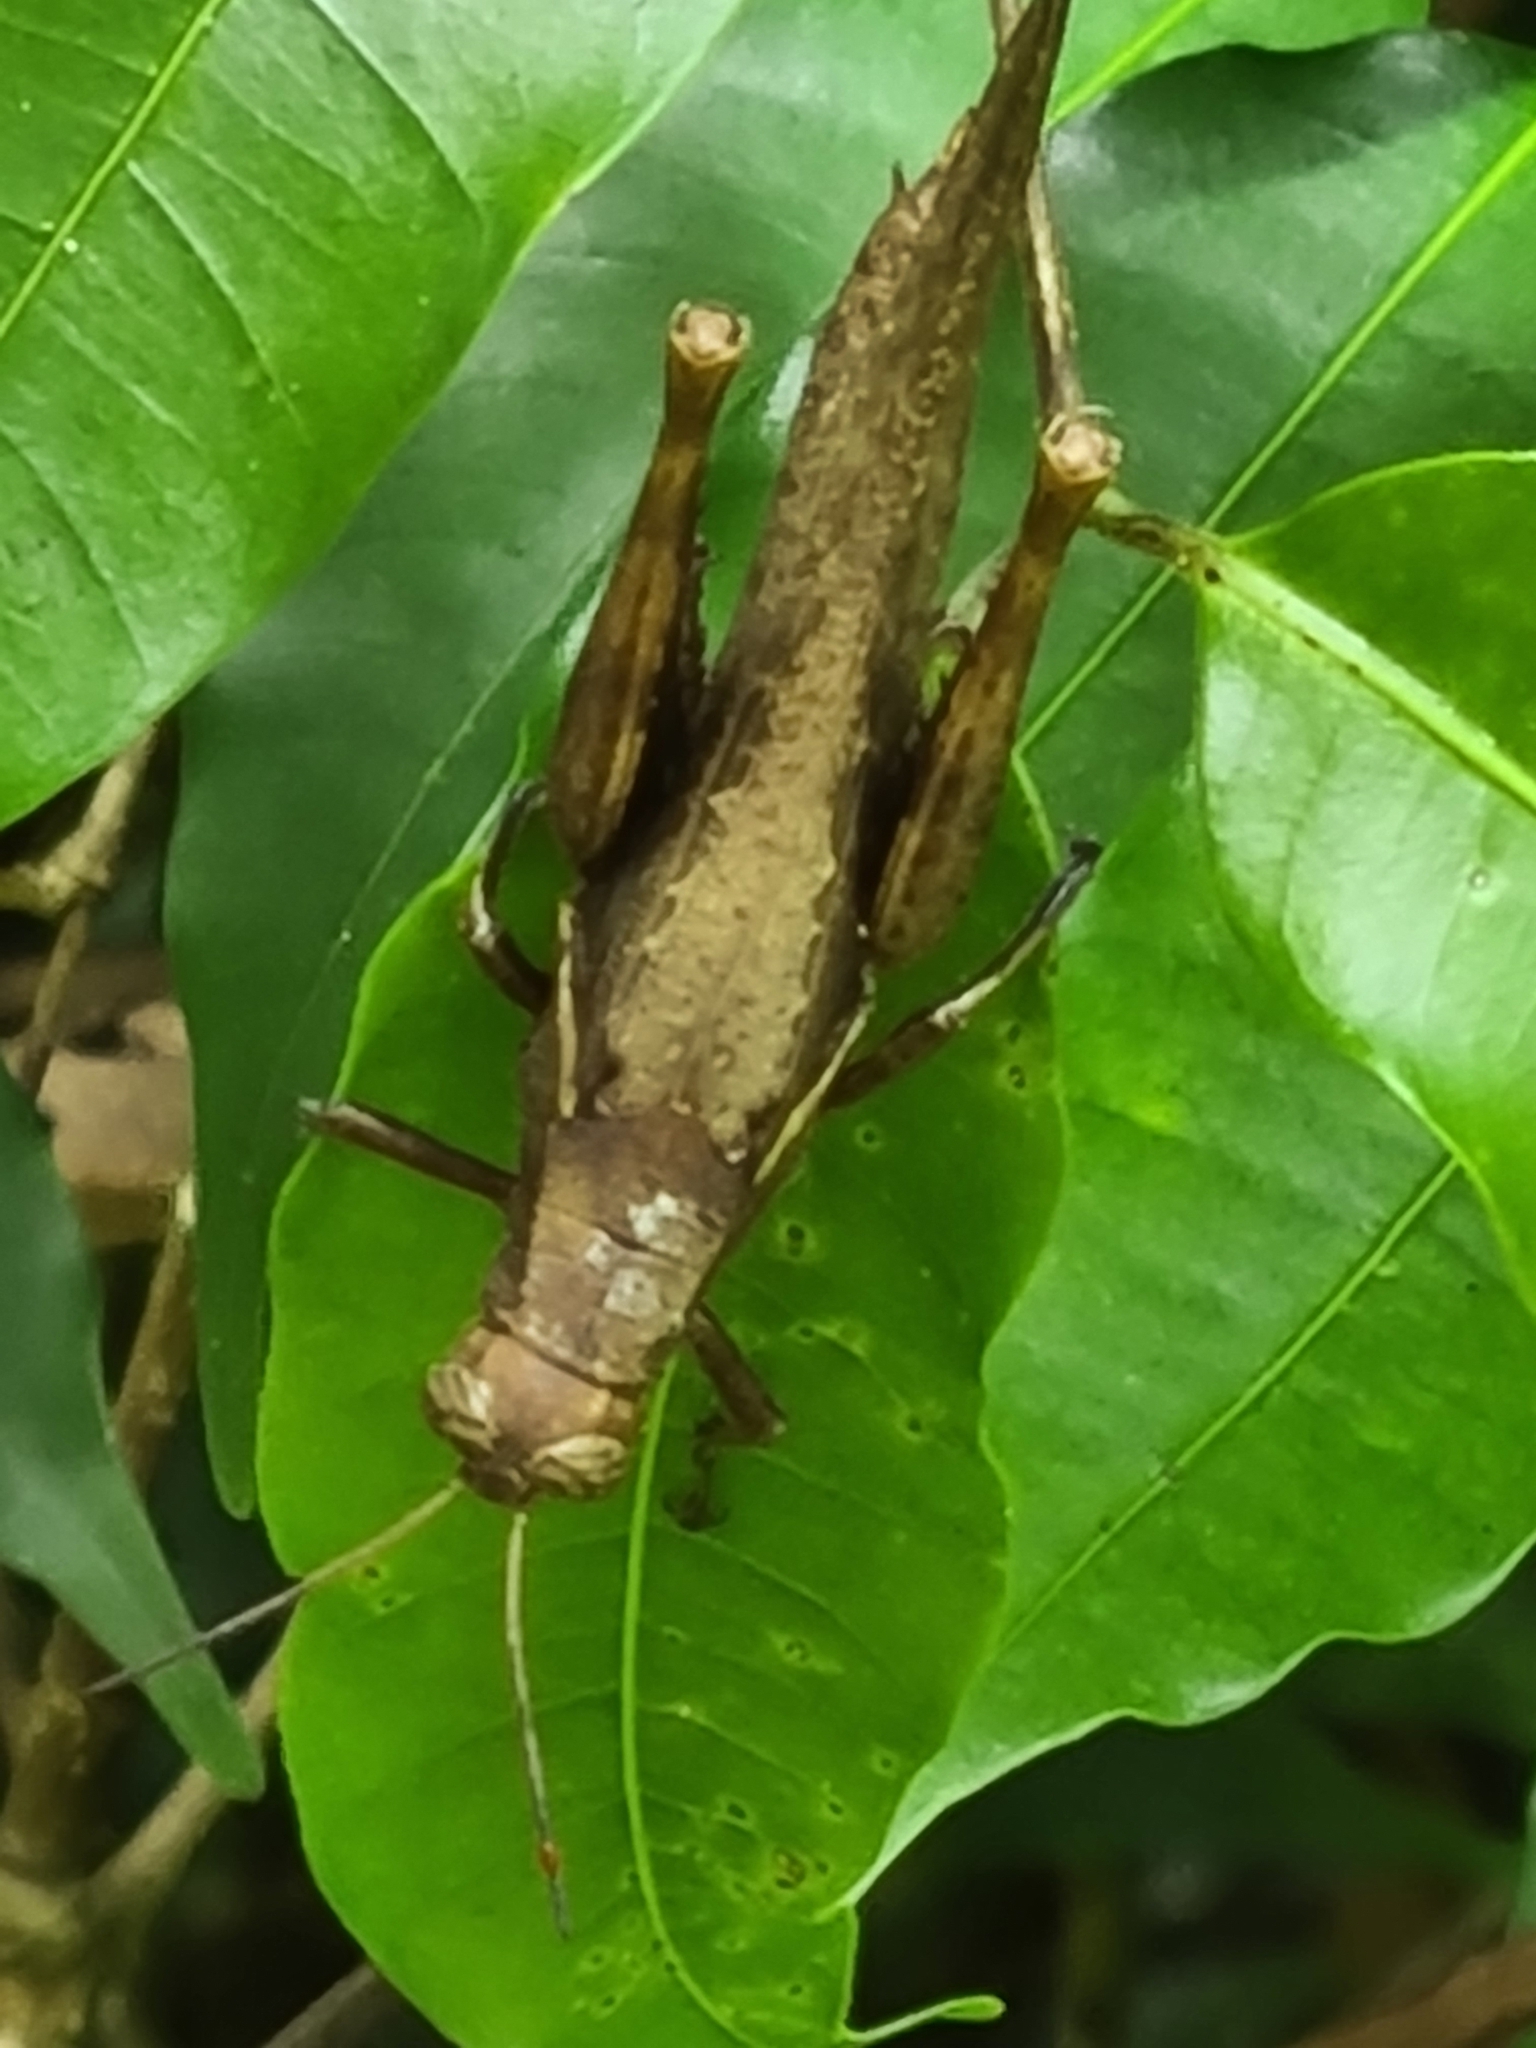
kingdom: Animalia
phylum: Arthropoda
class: Insecta
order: Orthoptera
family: Acrididae
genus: Abracris
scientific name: Abracris flavolineata
